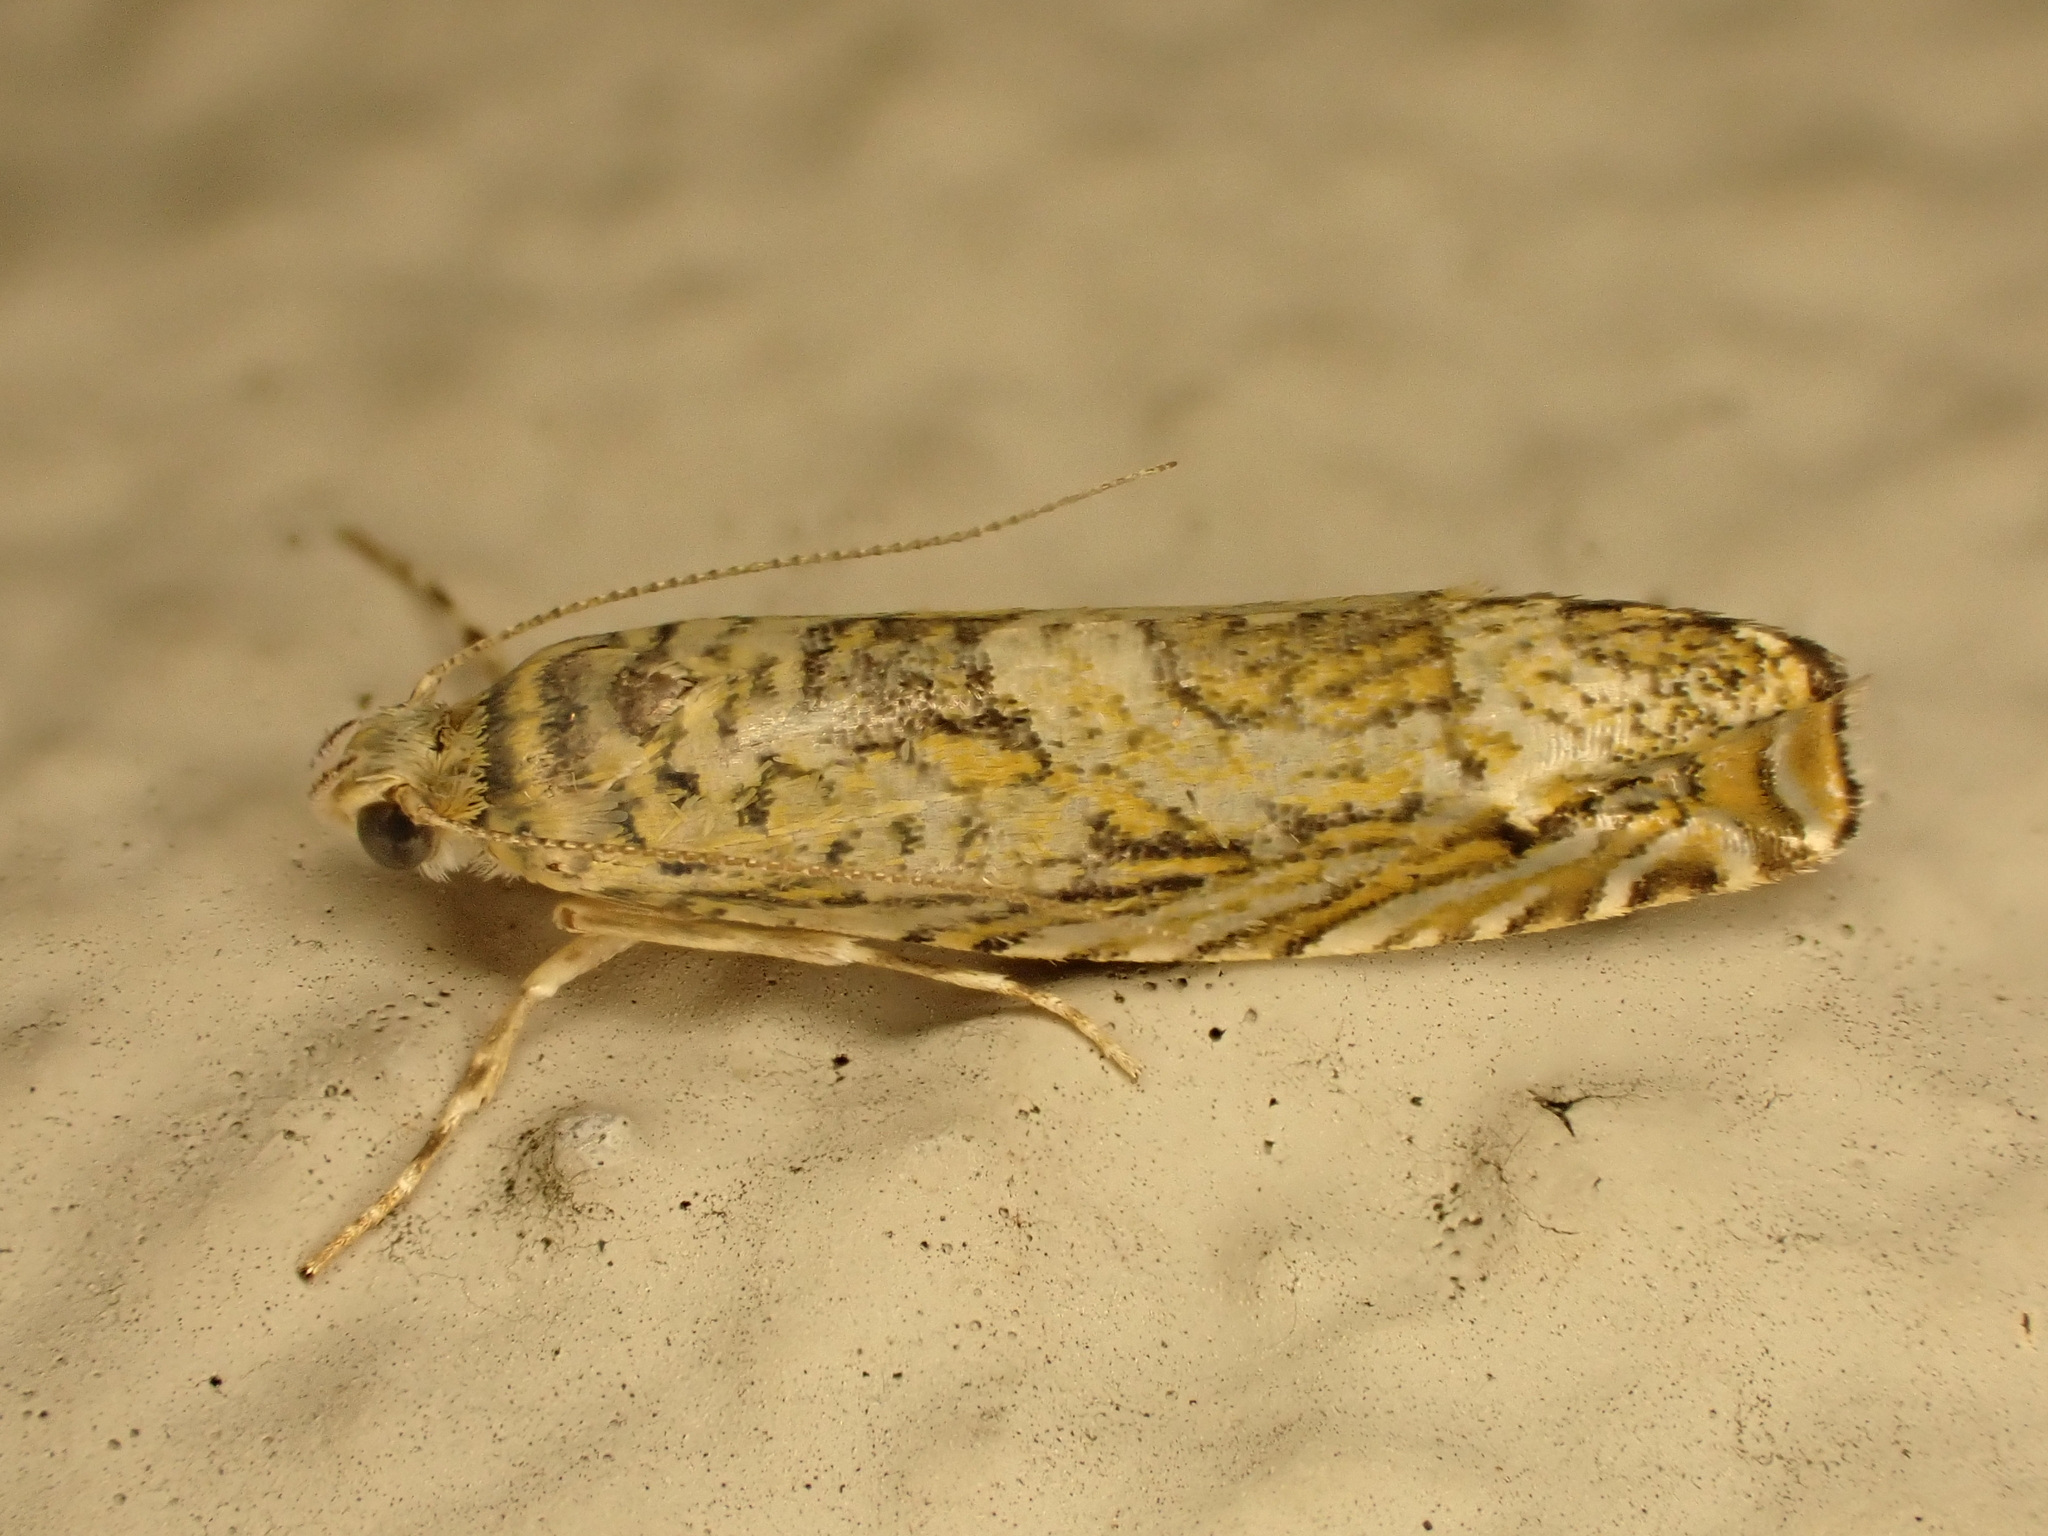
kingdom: Animalia
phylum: Arthropoda
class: Insecta
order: Lepidoptera
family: Plutellidae
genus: Doxophyrtis
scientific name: Doxophyrtis hydrocosma
